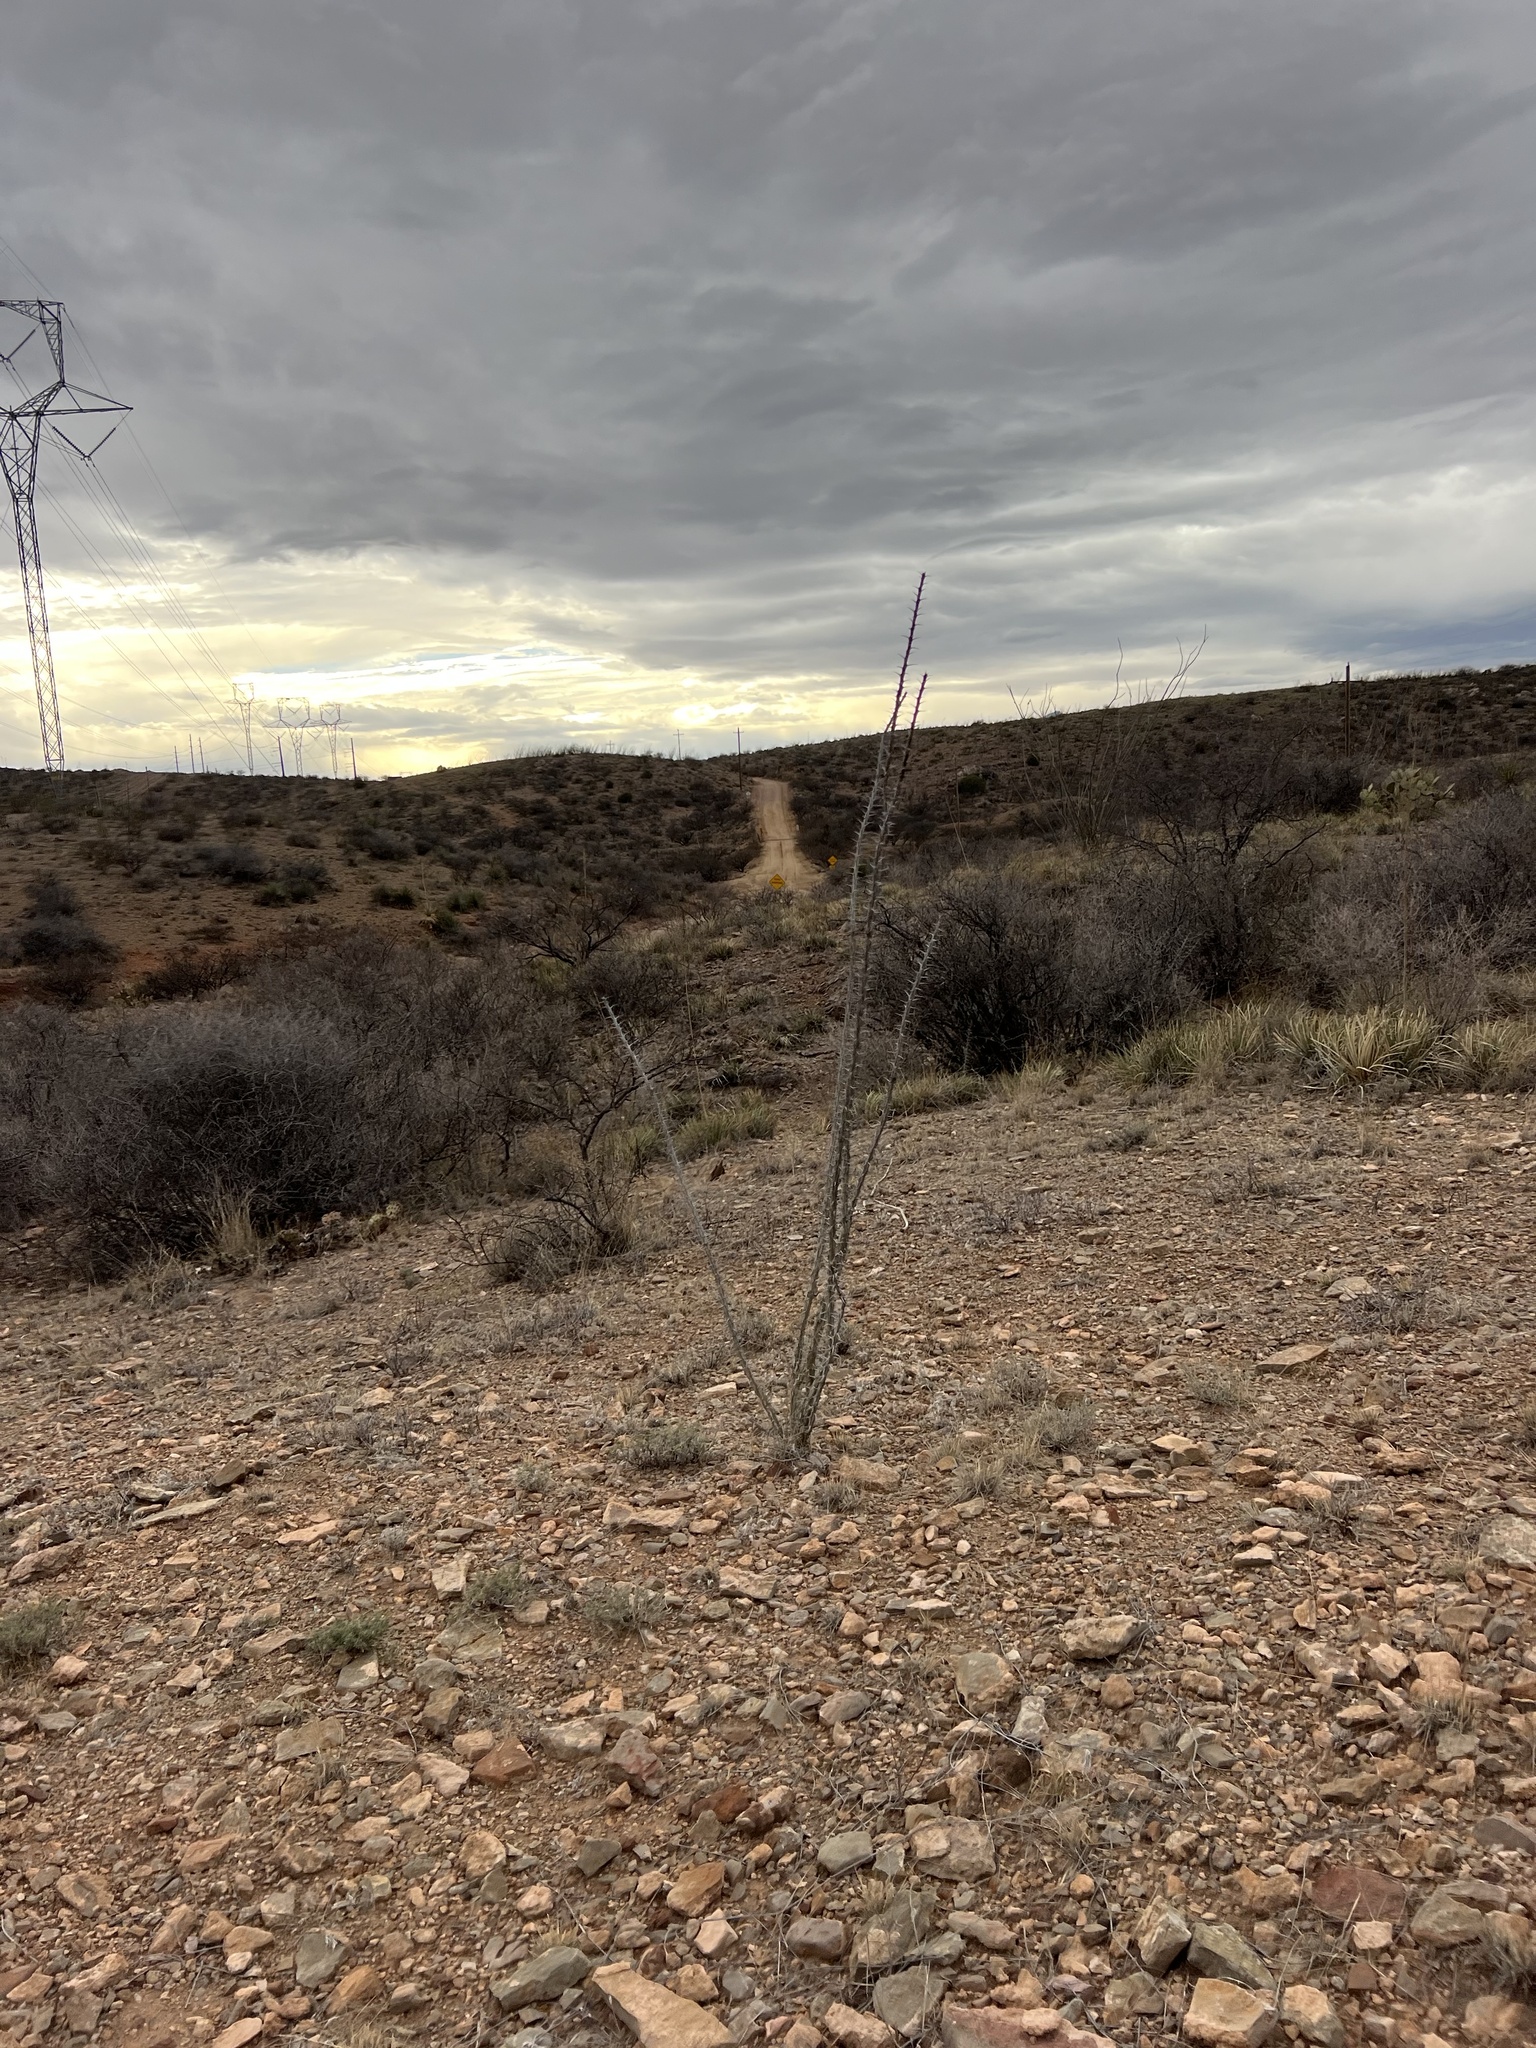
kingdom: Plantae
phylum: Tracheophyta
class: Magnoliopsida
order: Ericales
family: Fouquieriaceae
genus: Fouquieria
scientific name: Fouquieria splendens
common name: Vine-cactus
